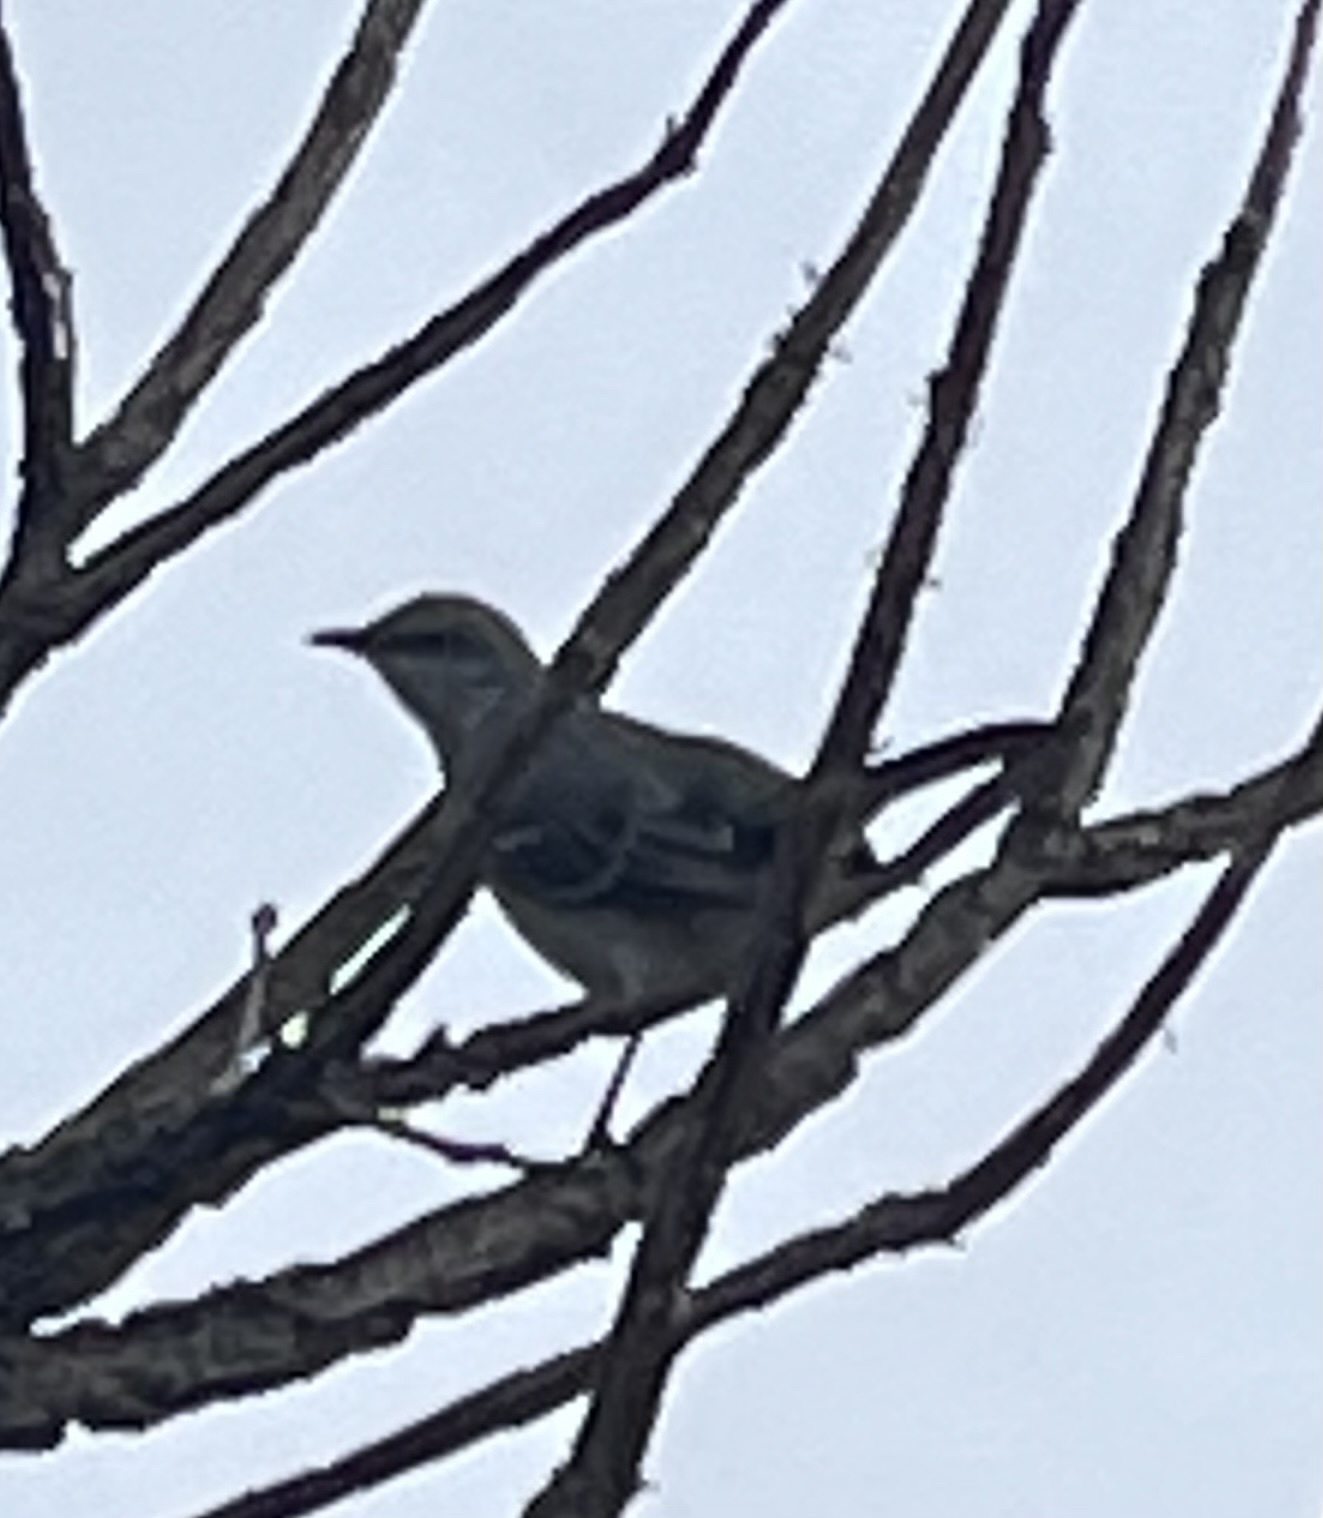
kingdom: Animalia
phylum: Chordata
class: Aves
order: Passeriformes
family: Mimidae
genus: Mimus
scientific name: Mimus polyglottos
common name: Northern mockingbird
